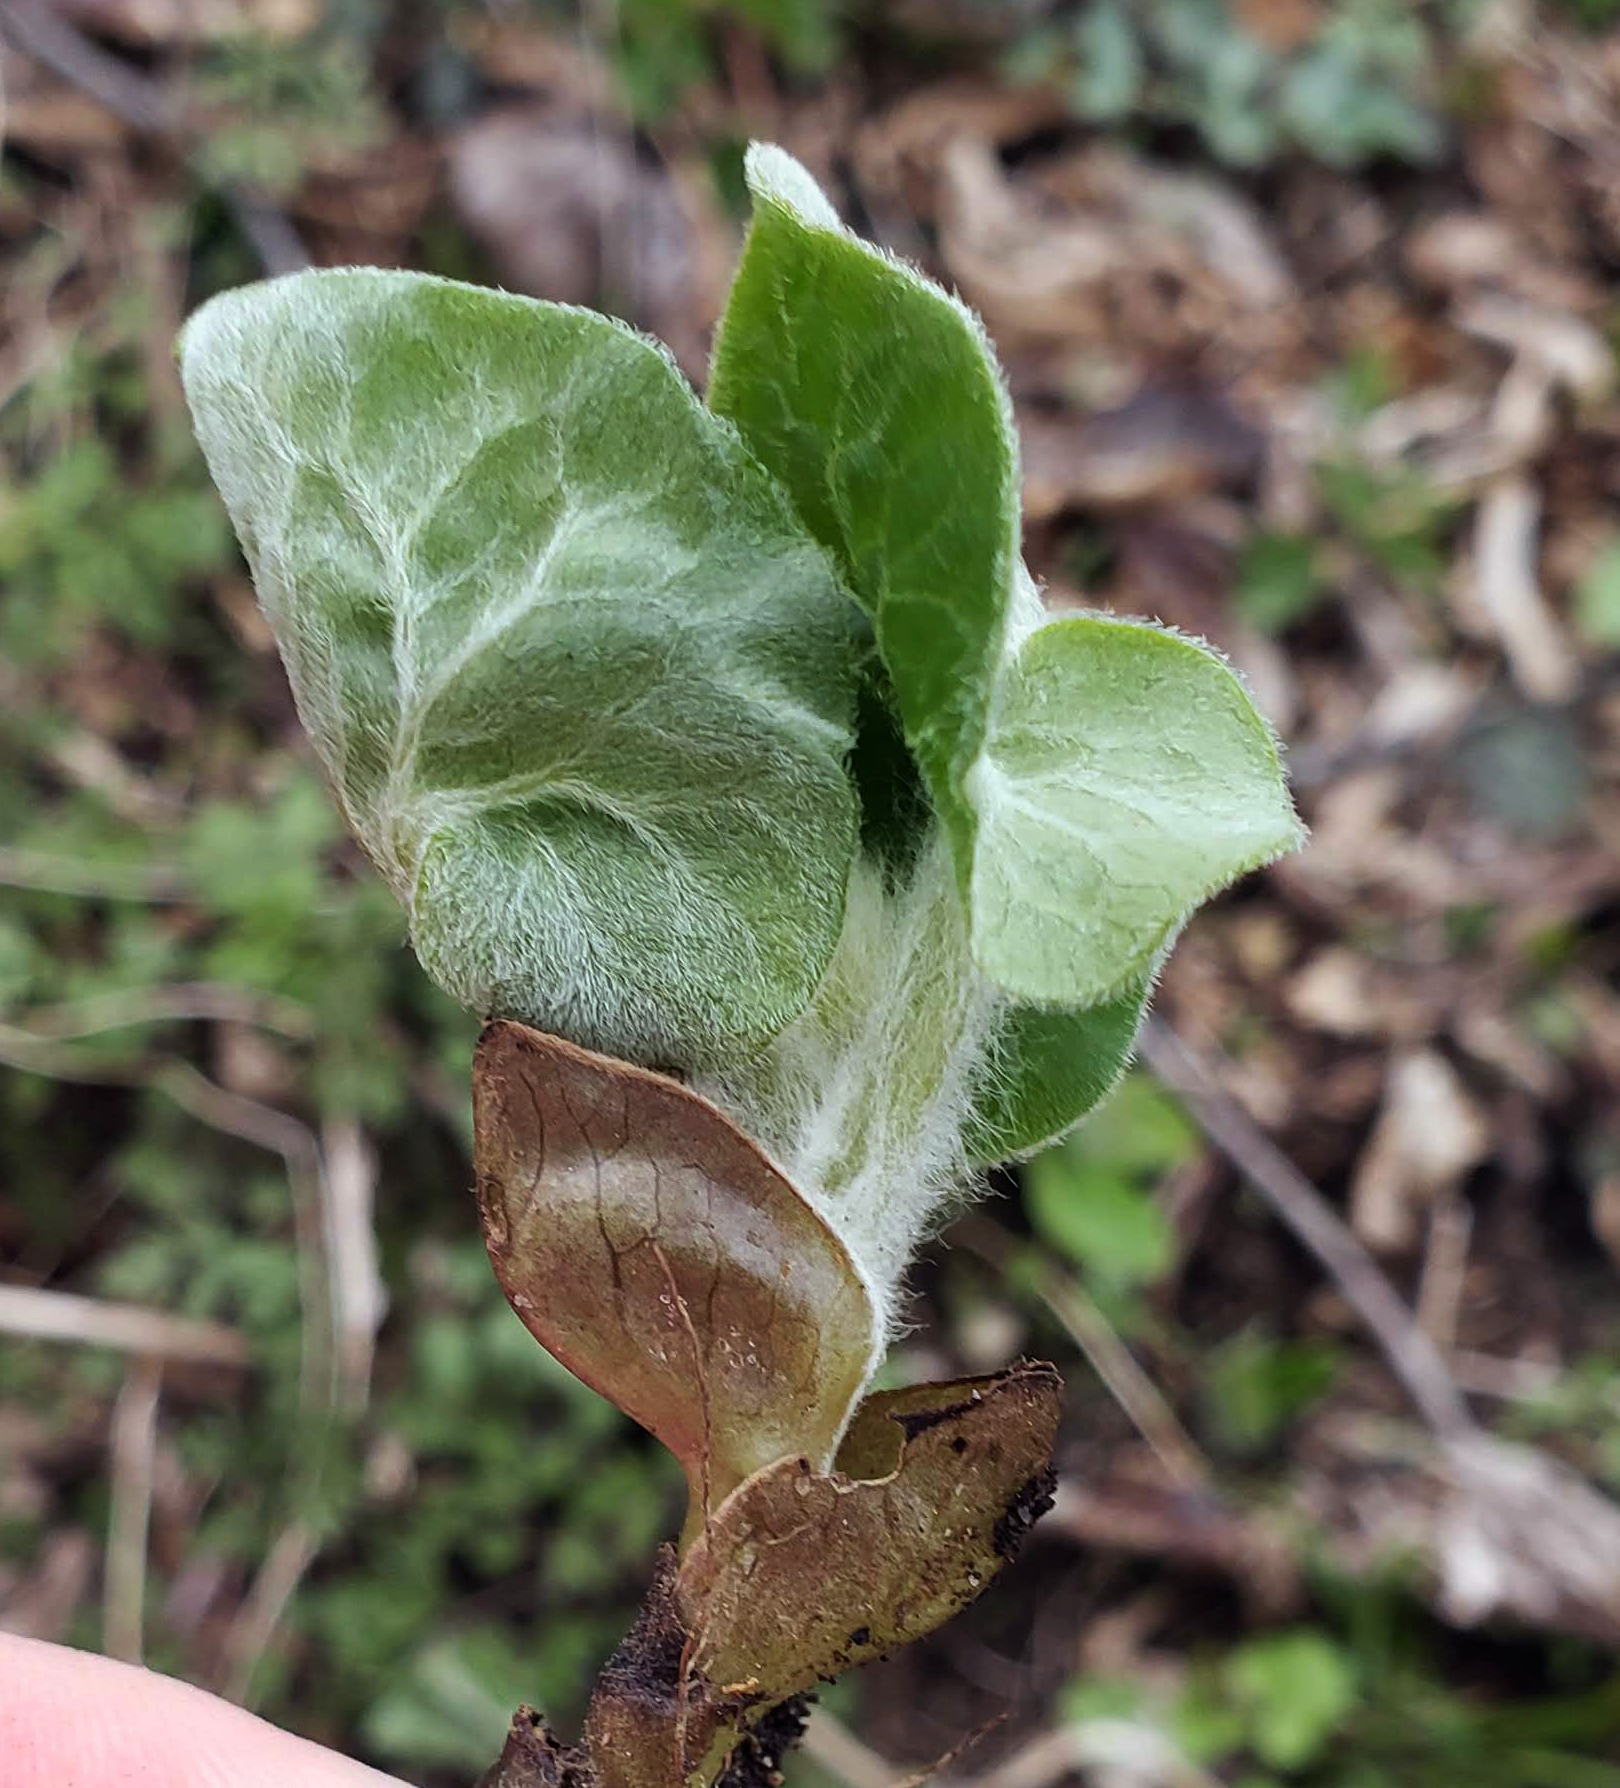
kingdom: Plantae
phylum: Tracheophyta
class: Magnoliopsida
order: Piperales
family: Aristolochiaceae
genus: Asarum
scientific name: Asarum canadense
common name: Wild ginger
